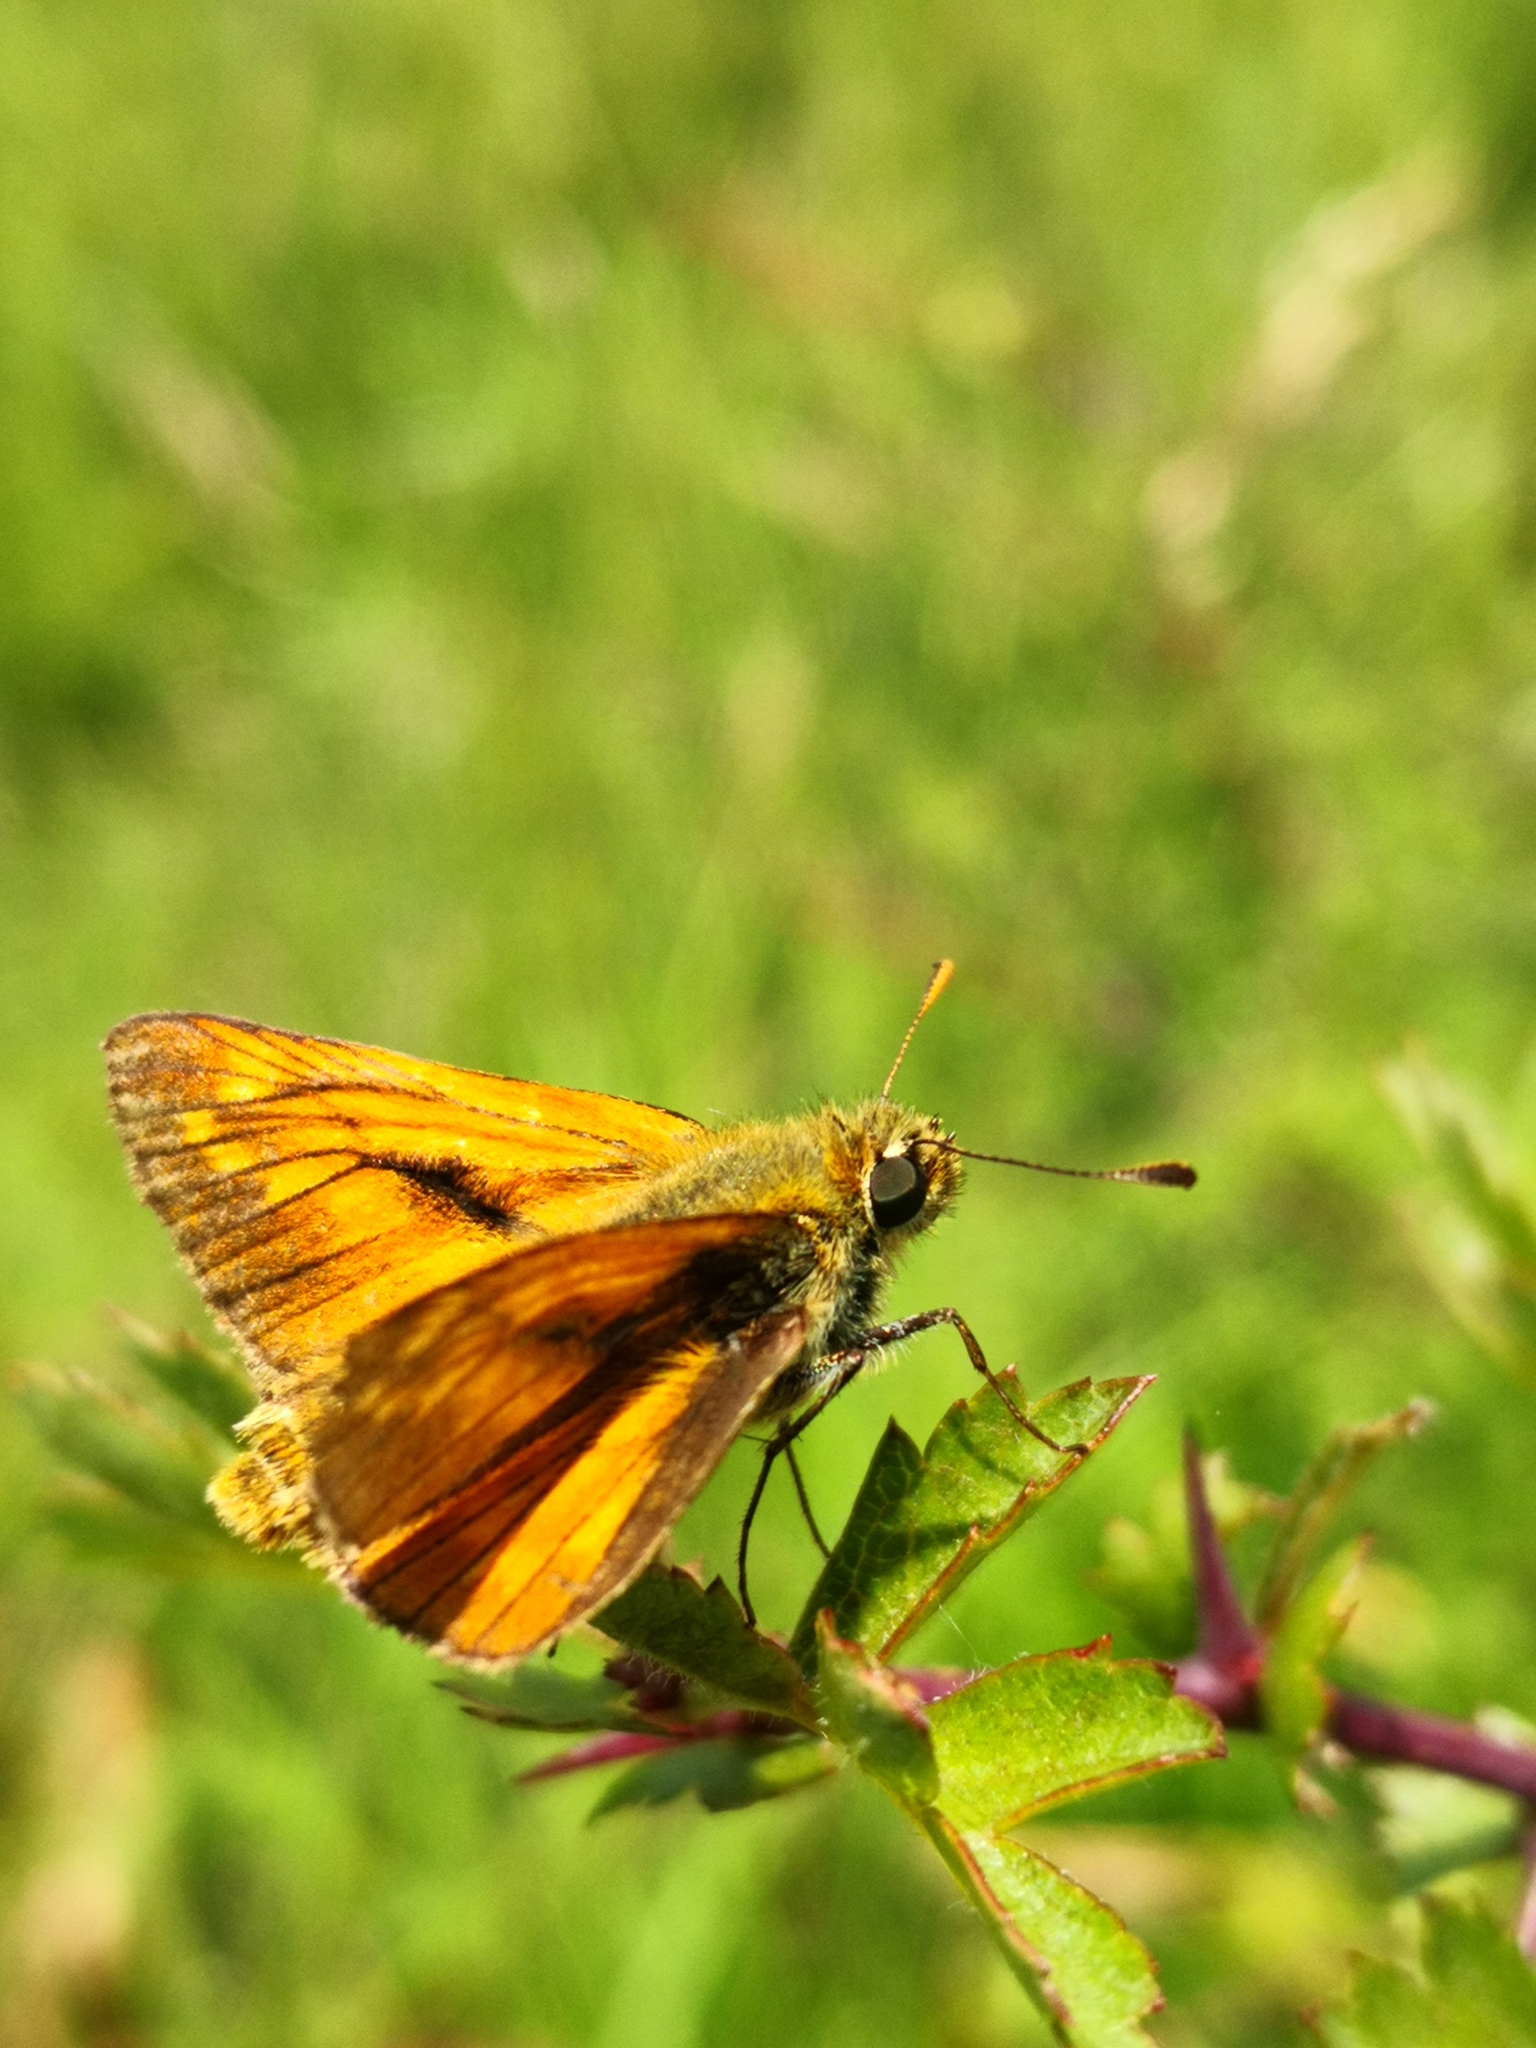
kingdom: Animalia
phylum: Arthropoda
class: Insecta
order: Lepidoptera
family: Hesperiidae
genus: Ochlodes
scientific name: Ochlodes venata
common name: Large skipper
